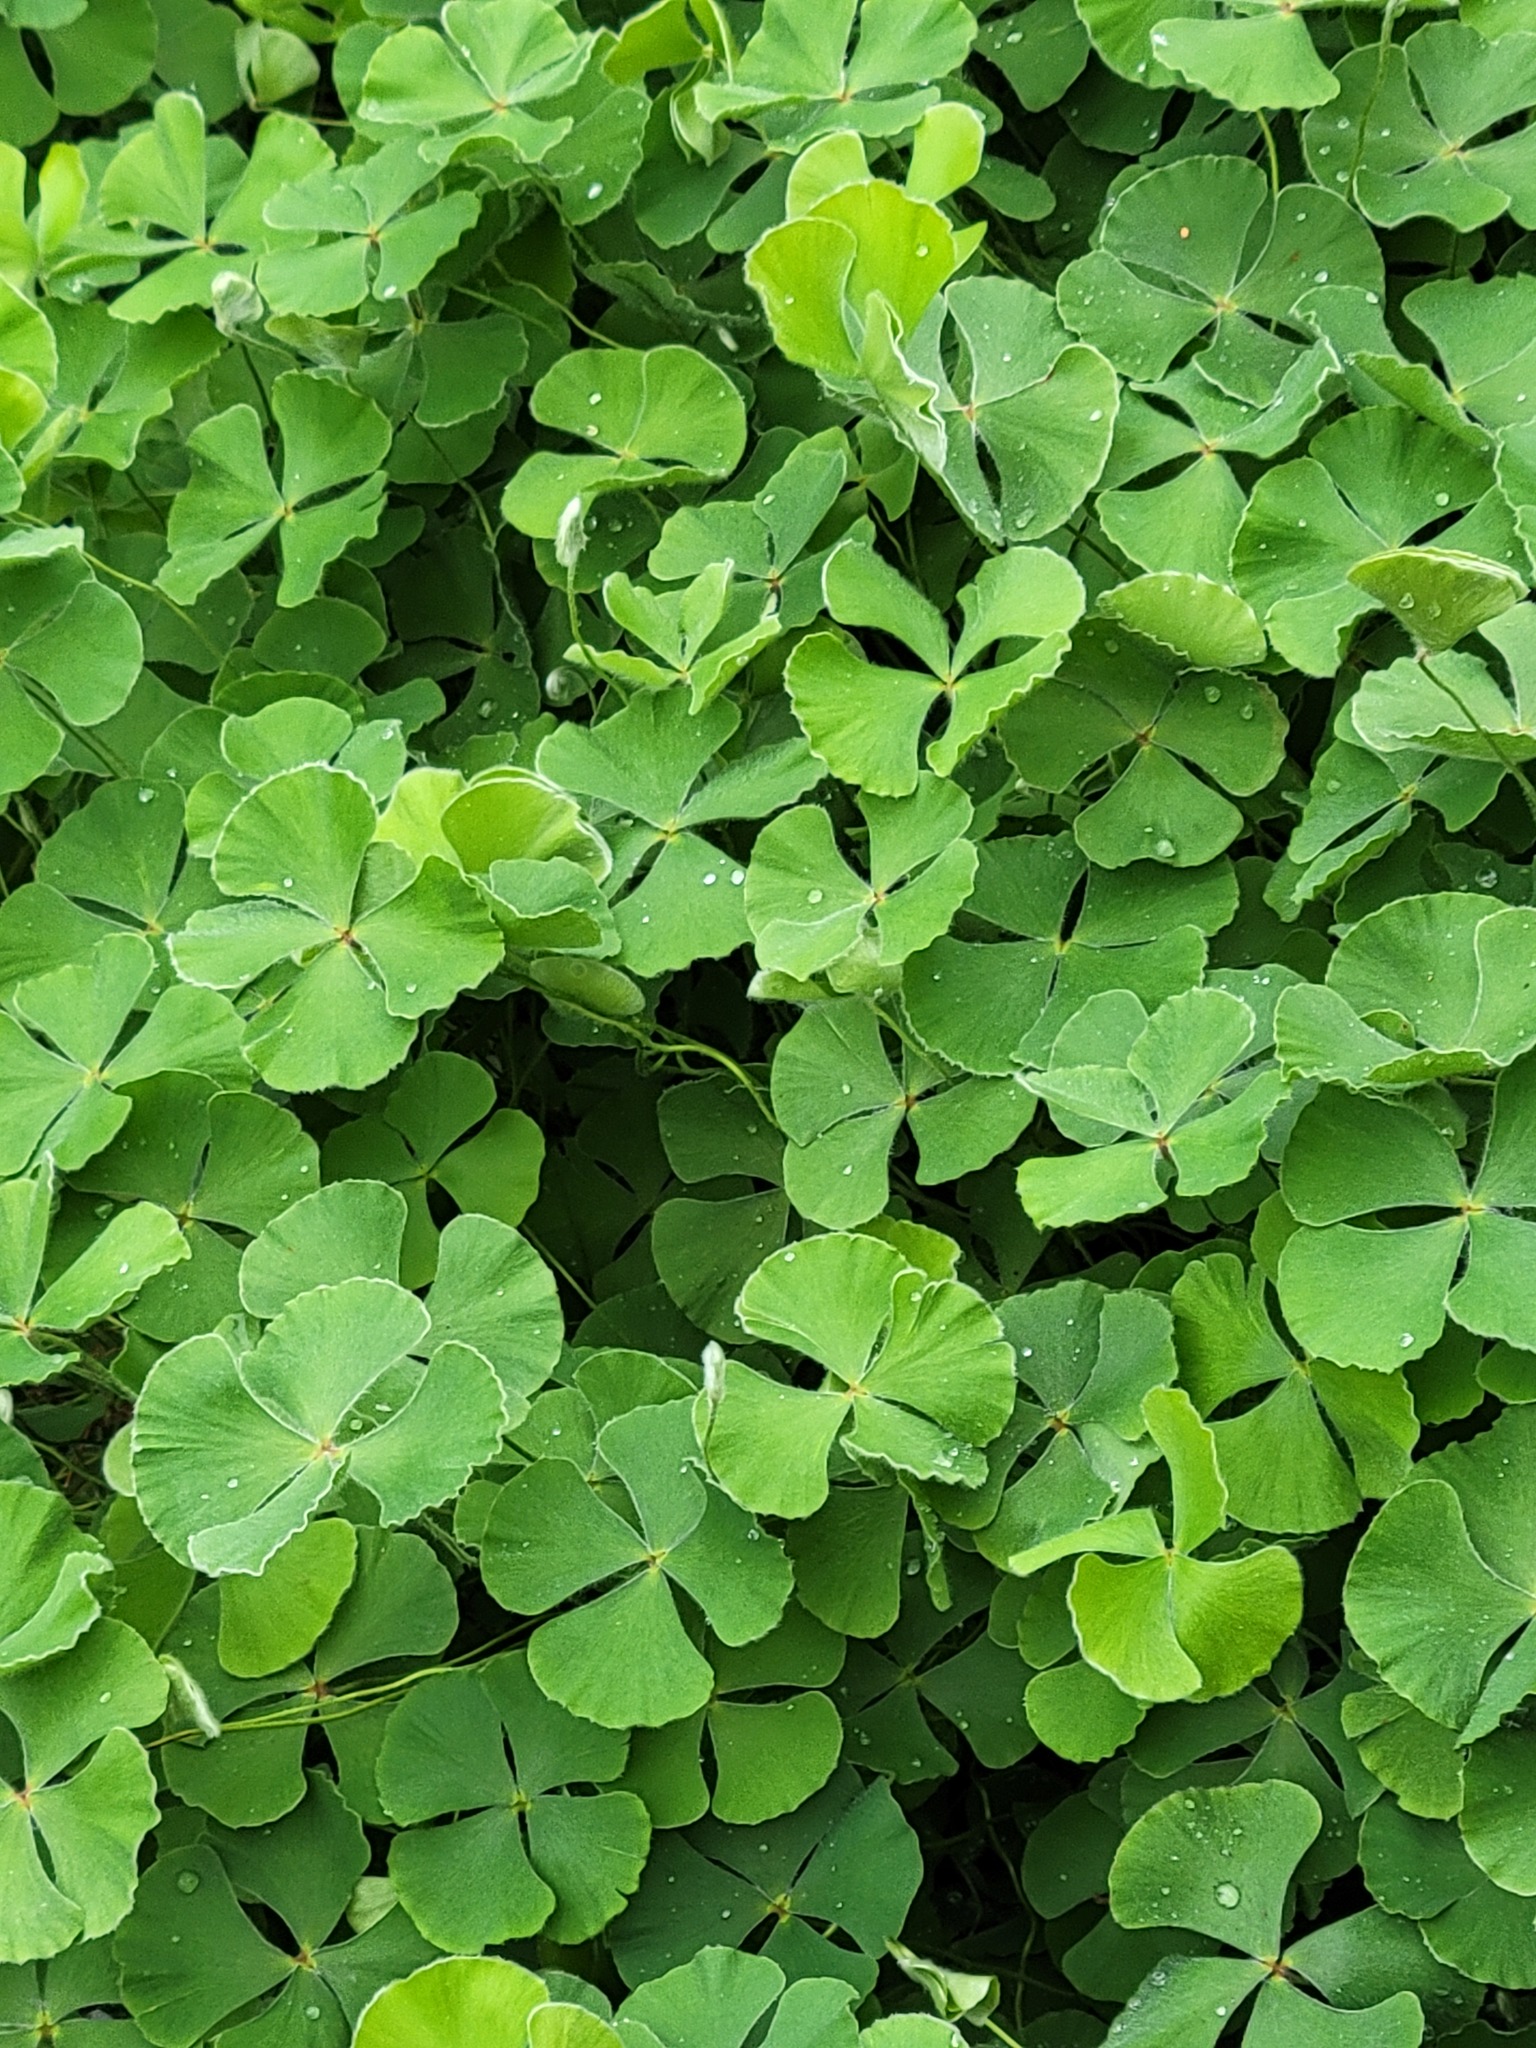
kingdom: Plantae
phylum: Tracheophyta
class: Polypodiopsida
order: Salviniales
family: Marsileaceae
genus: Marsilea
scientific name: Marsilea macropoda
